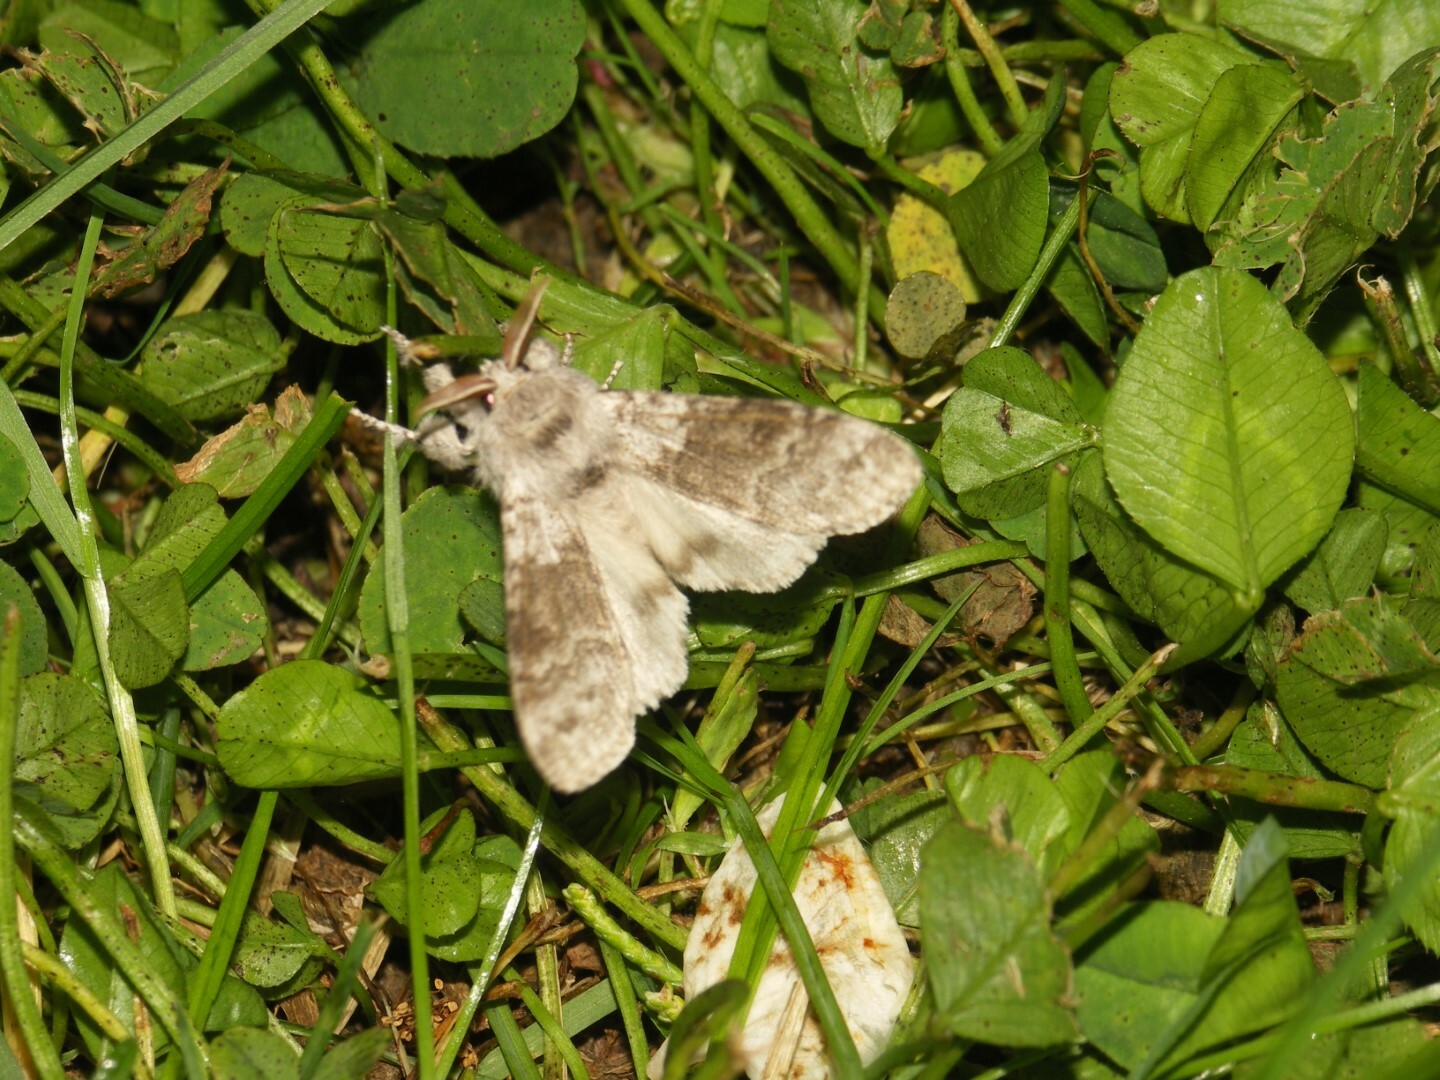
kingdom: Animalia
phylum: Arthropoda
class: Insecta
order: Lepidoptera
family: Erebidae
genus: Calliteara
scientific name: Calliteara pudibunda
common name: Pale tussock
